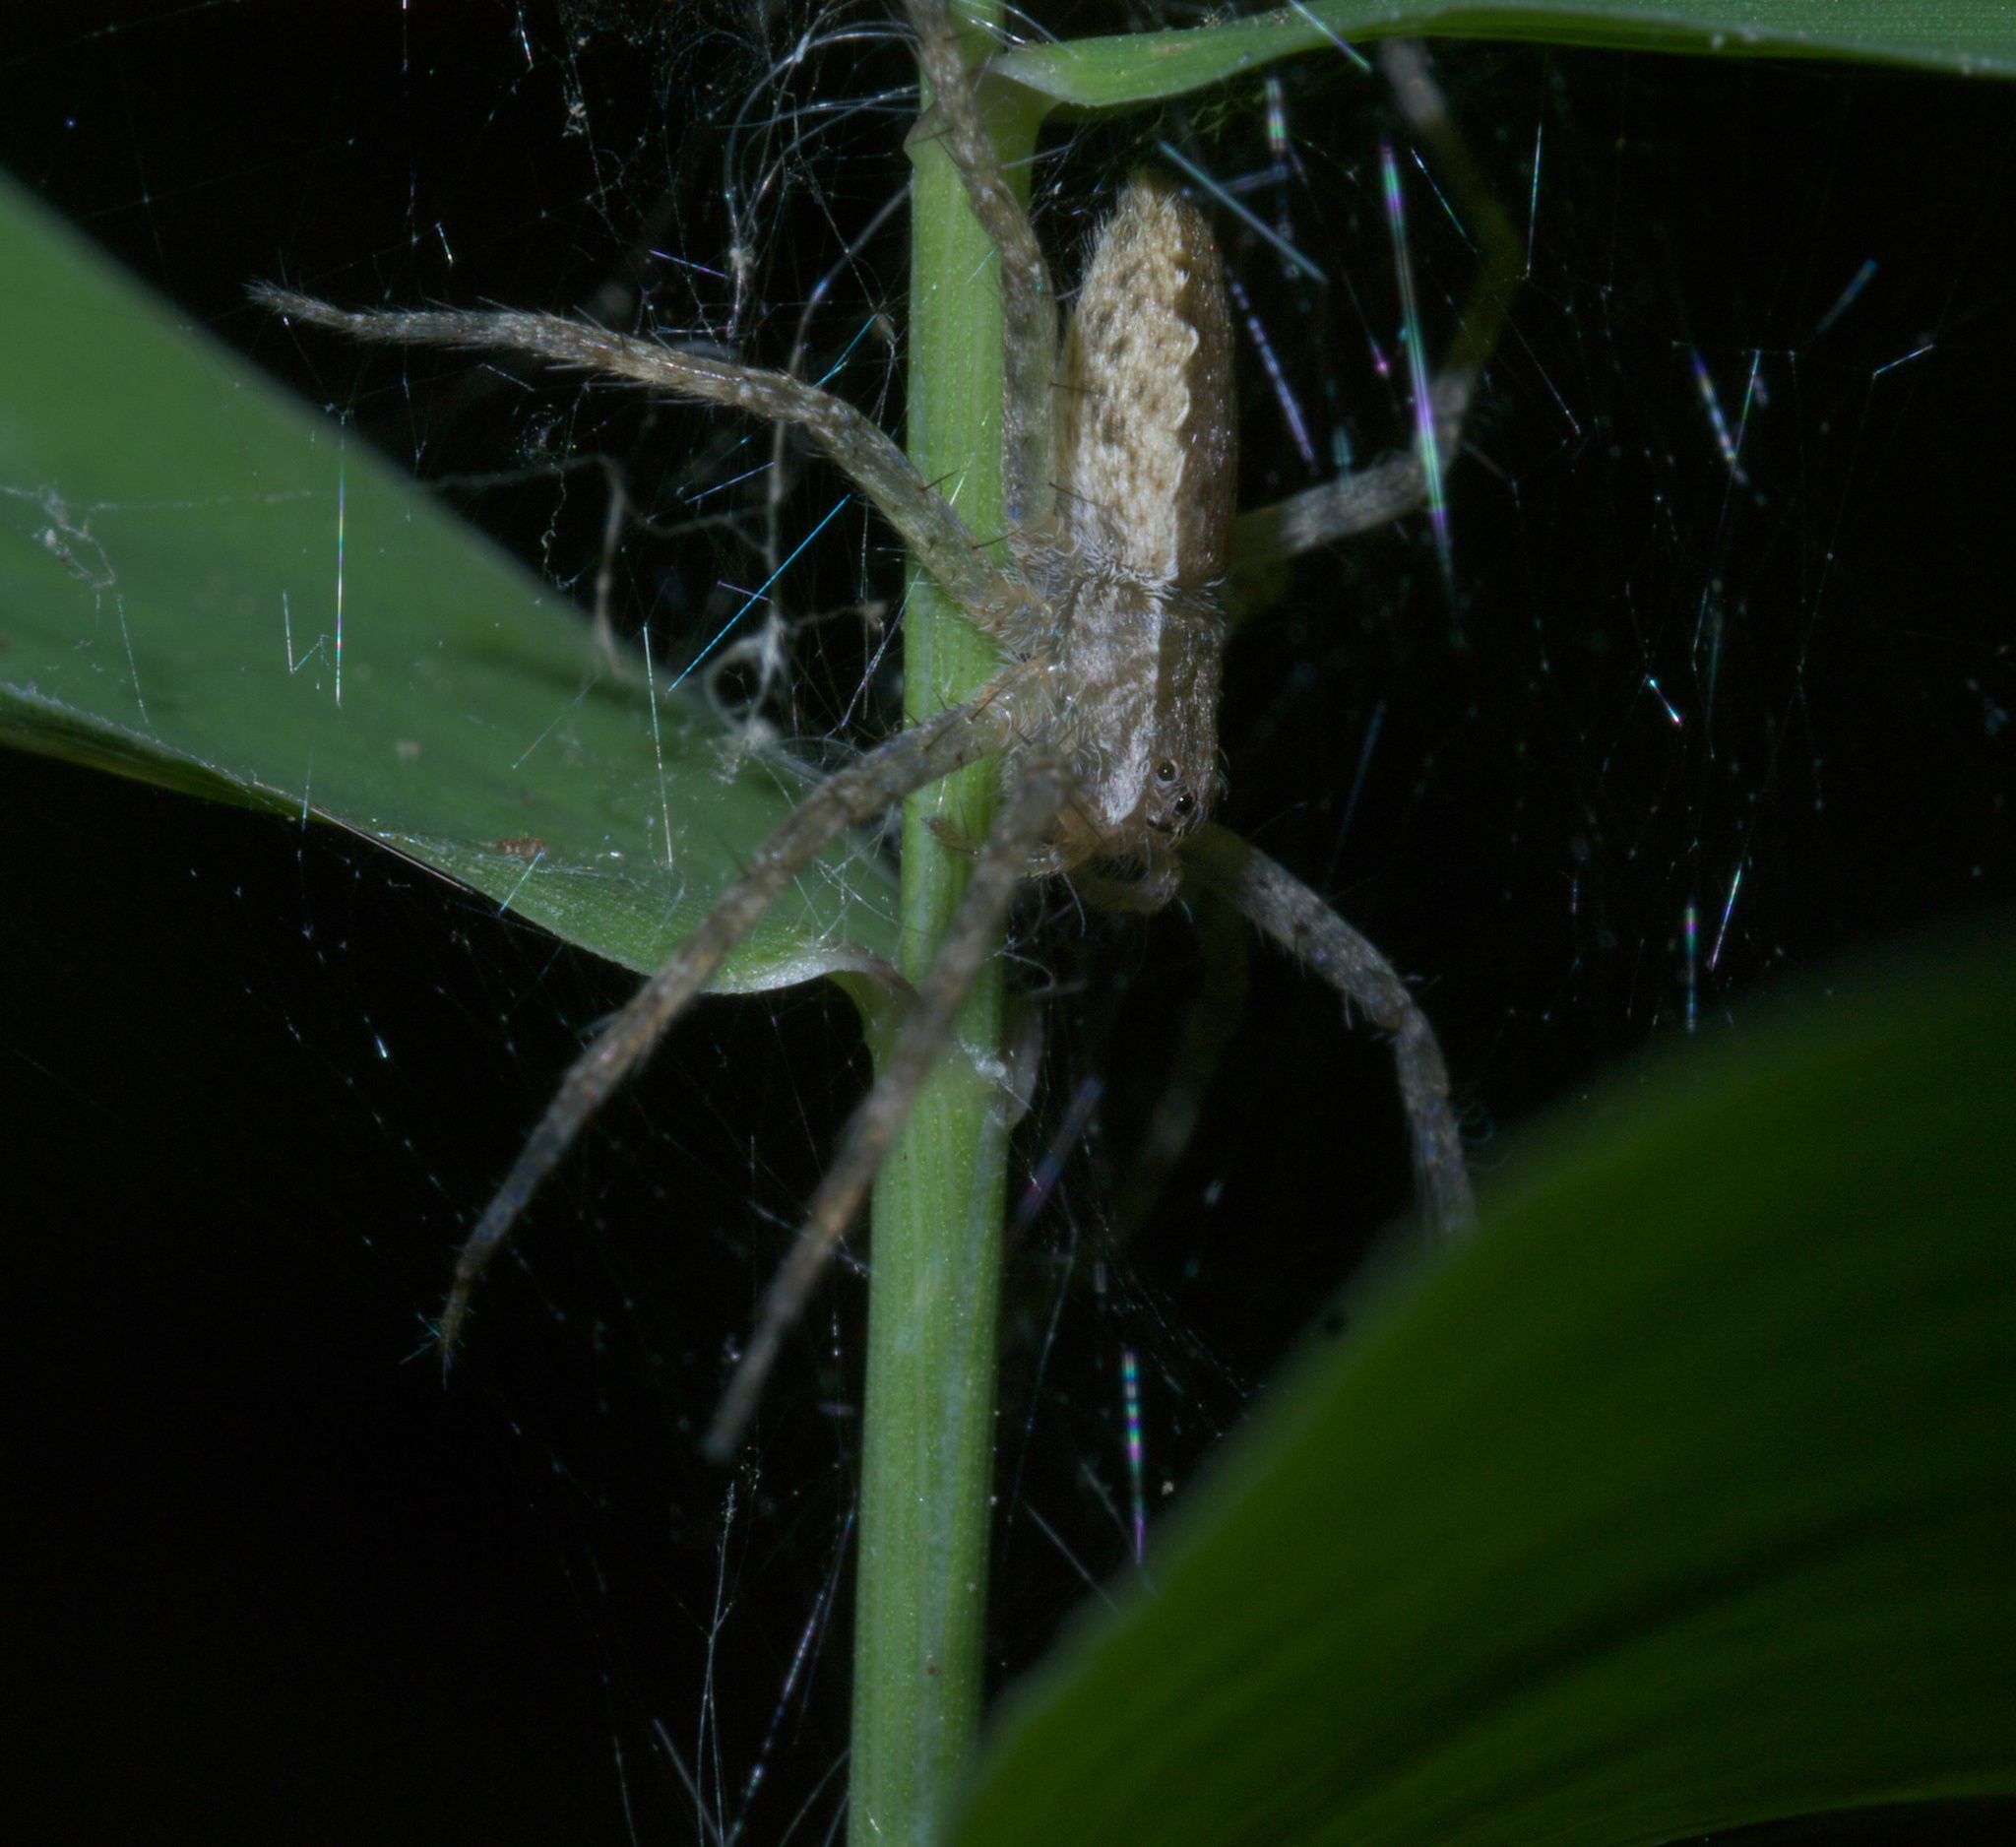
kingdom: Animalia
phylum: Arthropoda
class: Arachnida
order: Araneae
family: Pisauridae
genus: Pisaurina
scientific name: Pisaurina mira
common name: American nursery web spider
